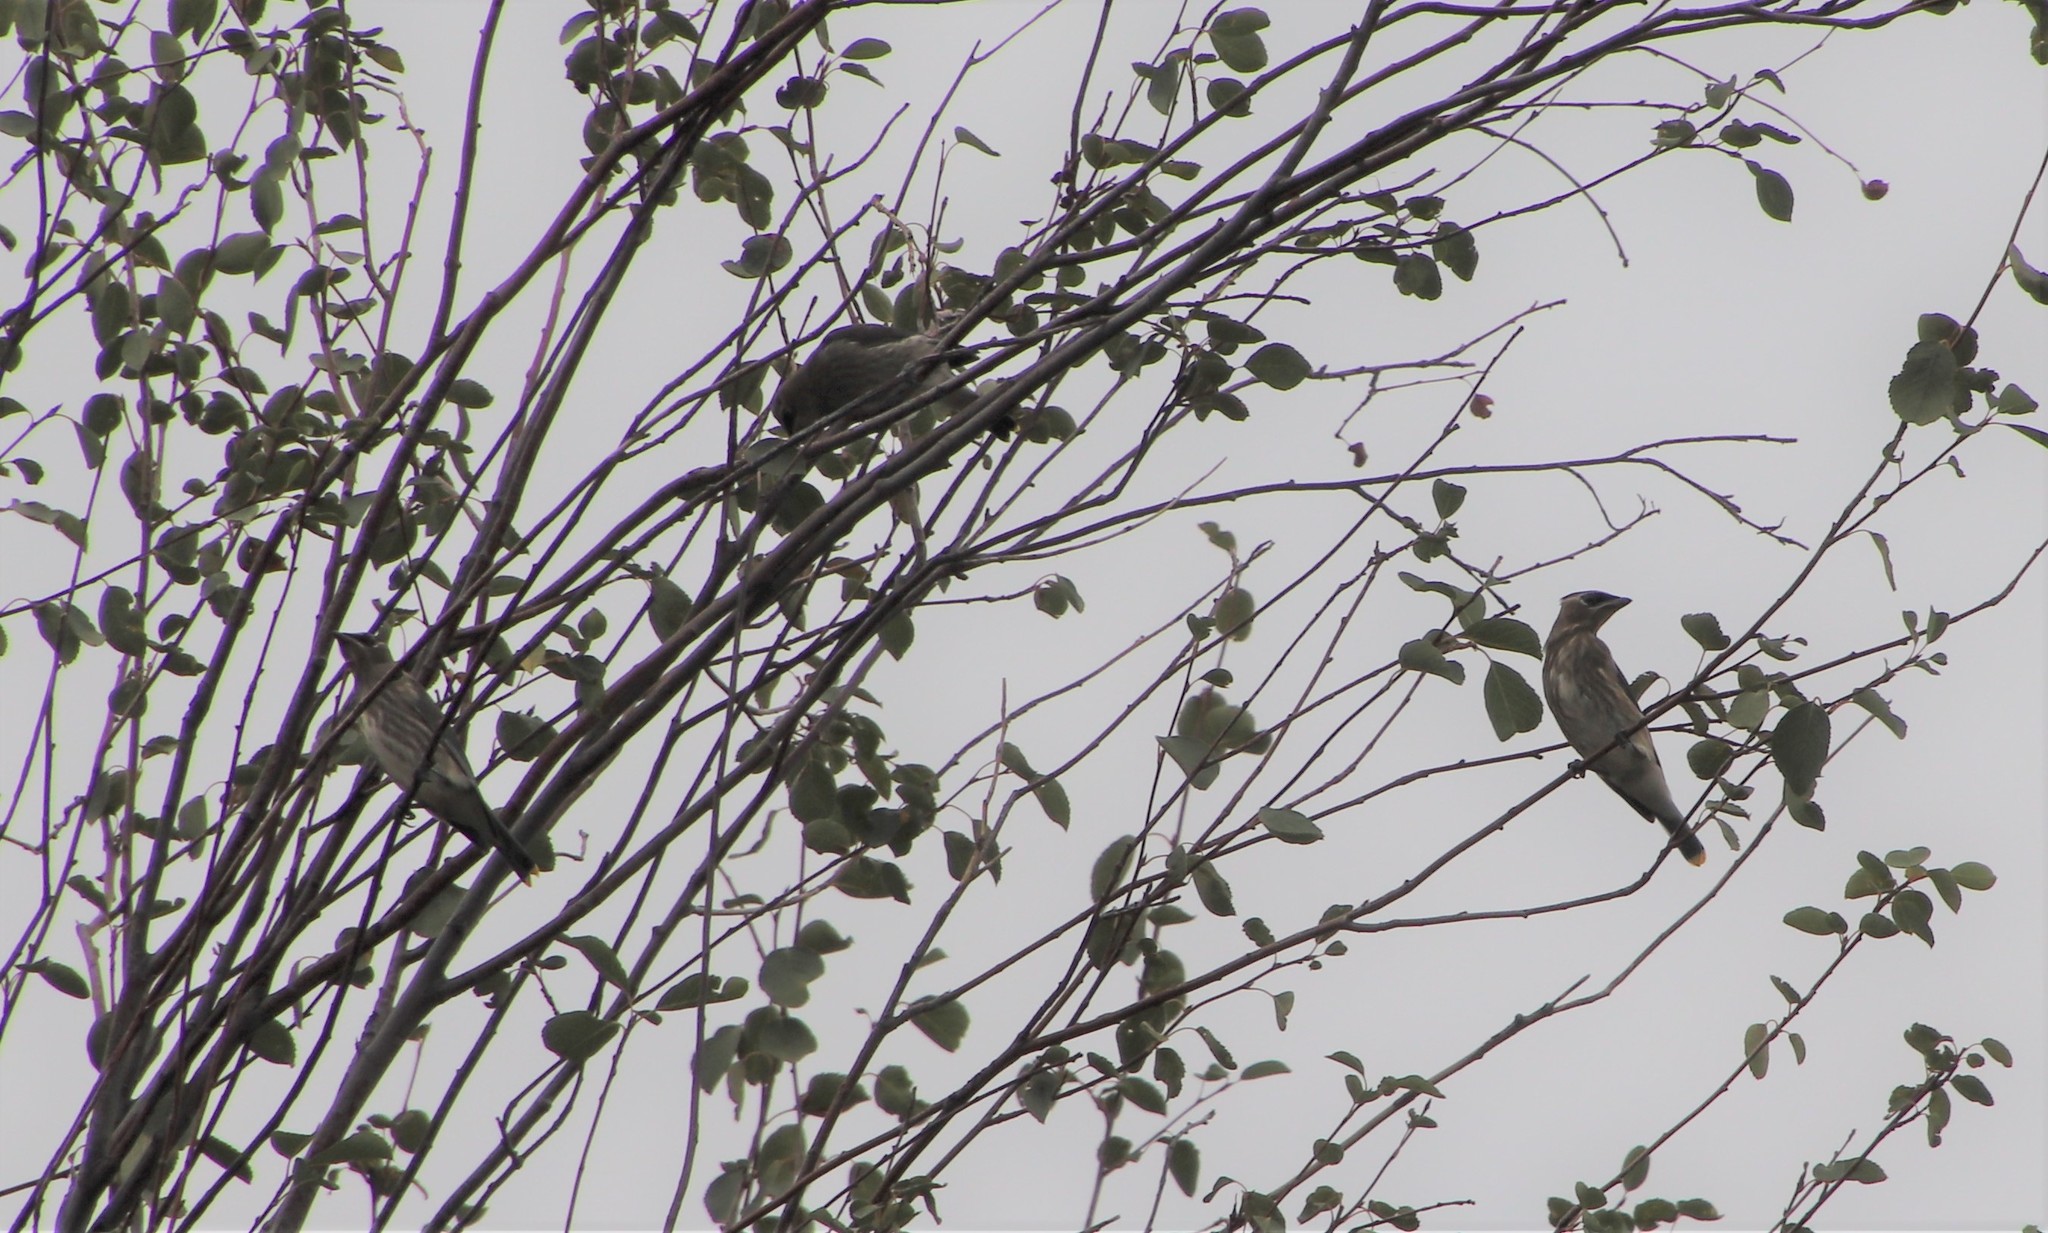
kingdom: Animalia
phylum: Chordata
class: Aves
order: Passeriformes
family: Bombycillidae
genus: Bombycilla
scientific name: Bombycilla cedrorum
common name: Cedar waxwing
